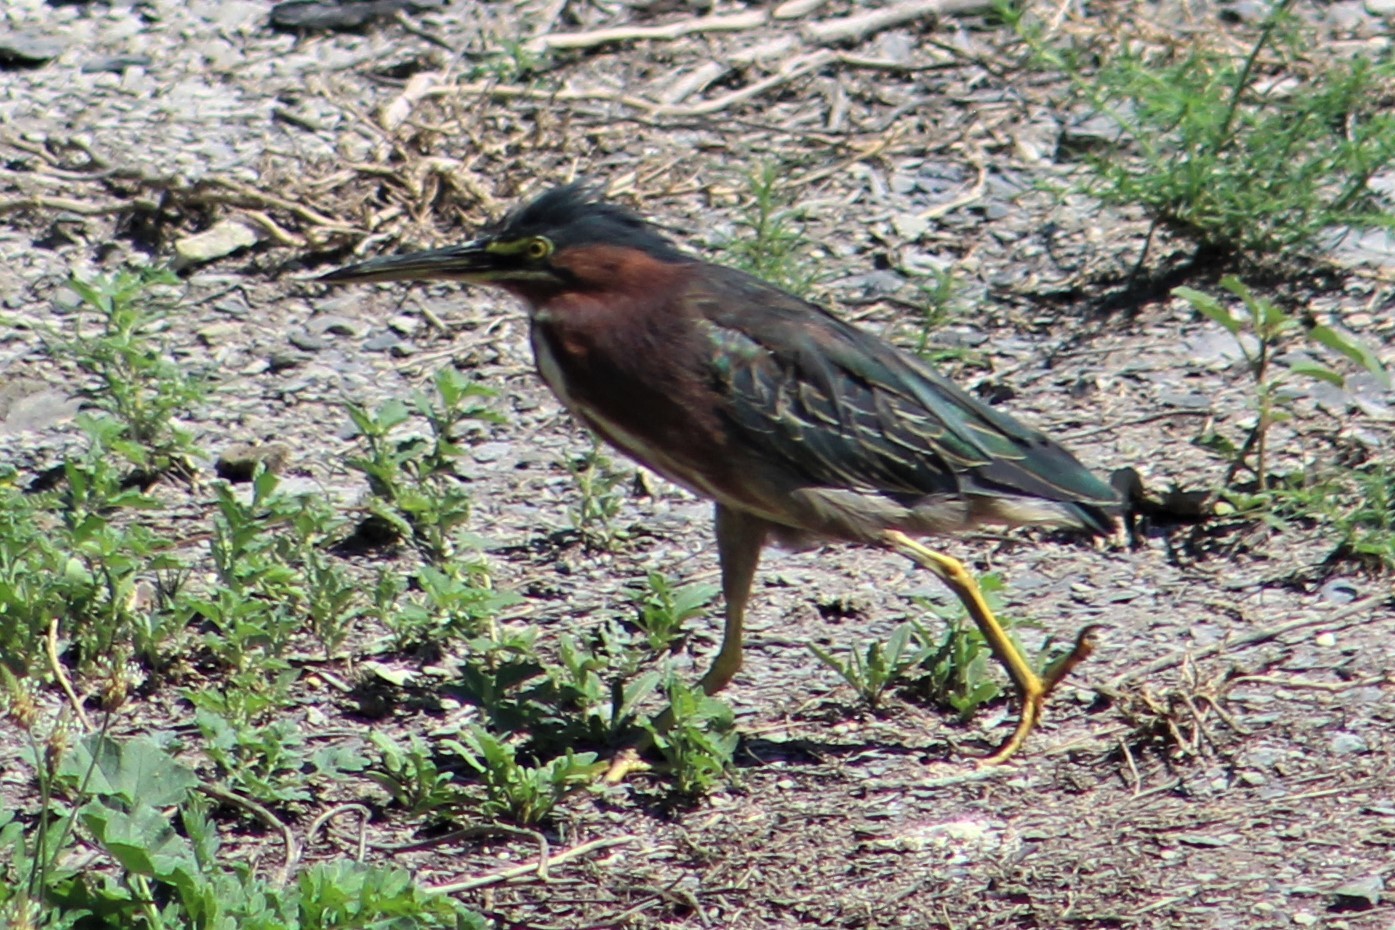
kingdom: Animalia
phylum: Chordata
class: Aves
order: Pelecaniformes
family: Ardeidae
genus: Butorides
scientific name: Butorides virescens
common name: Green heron
